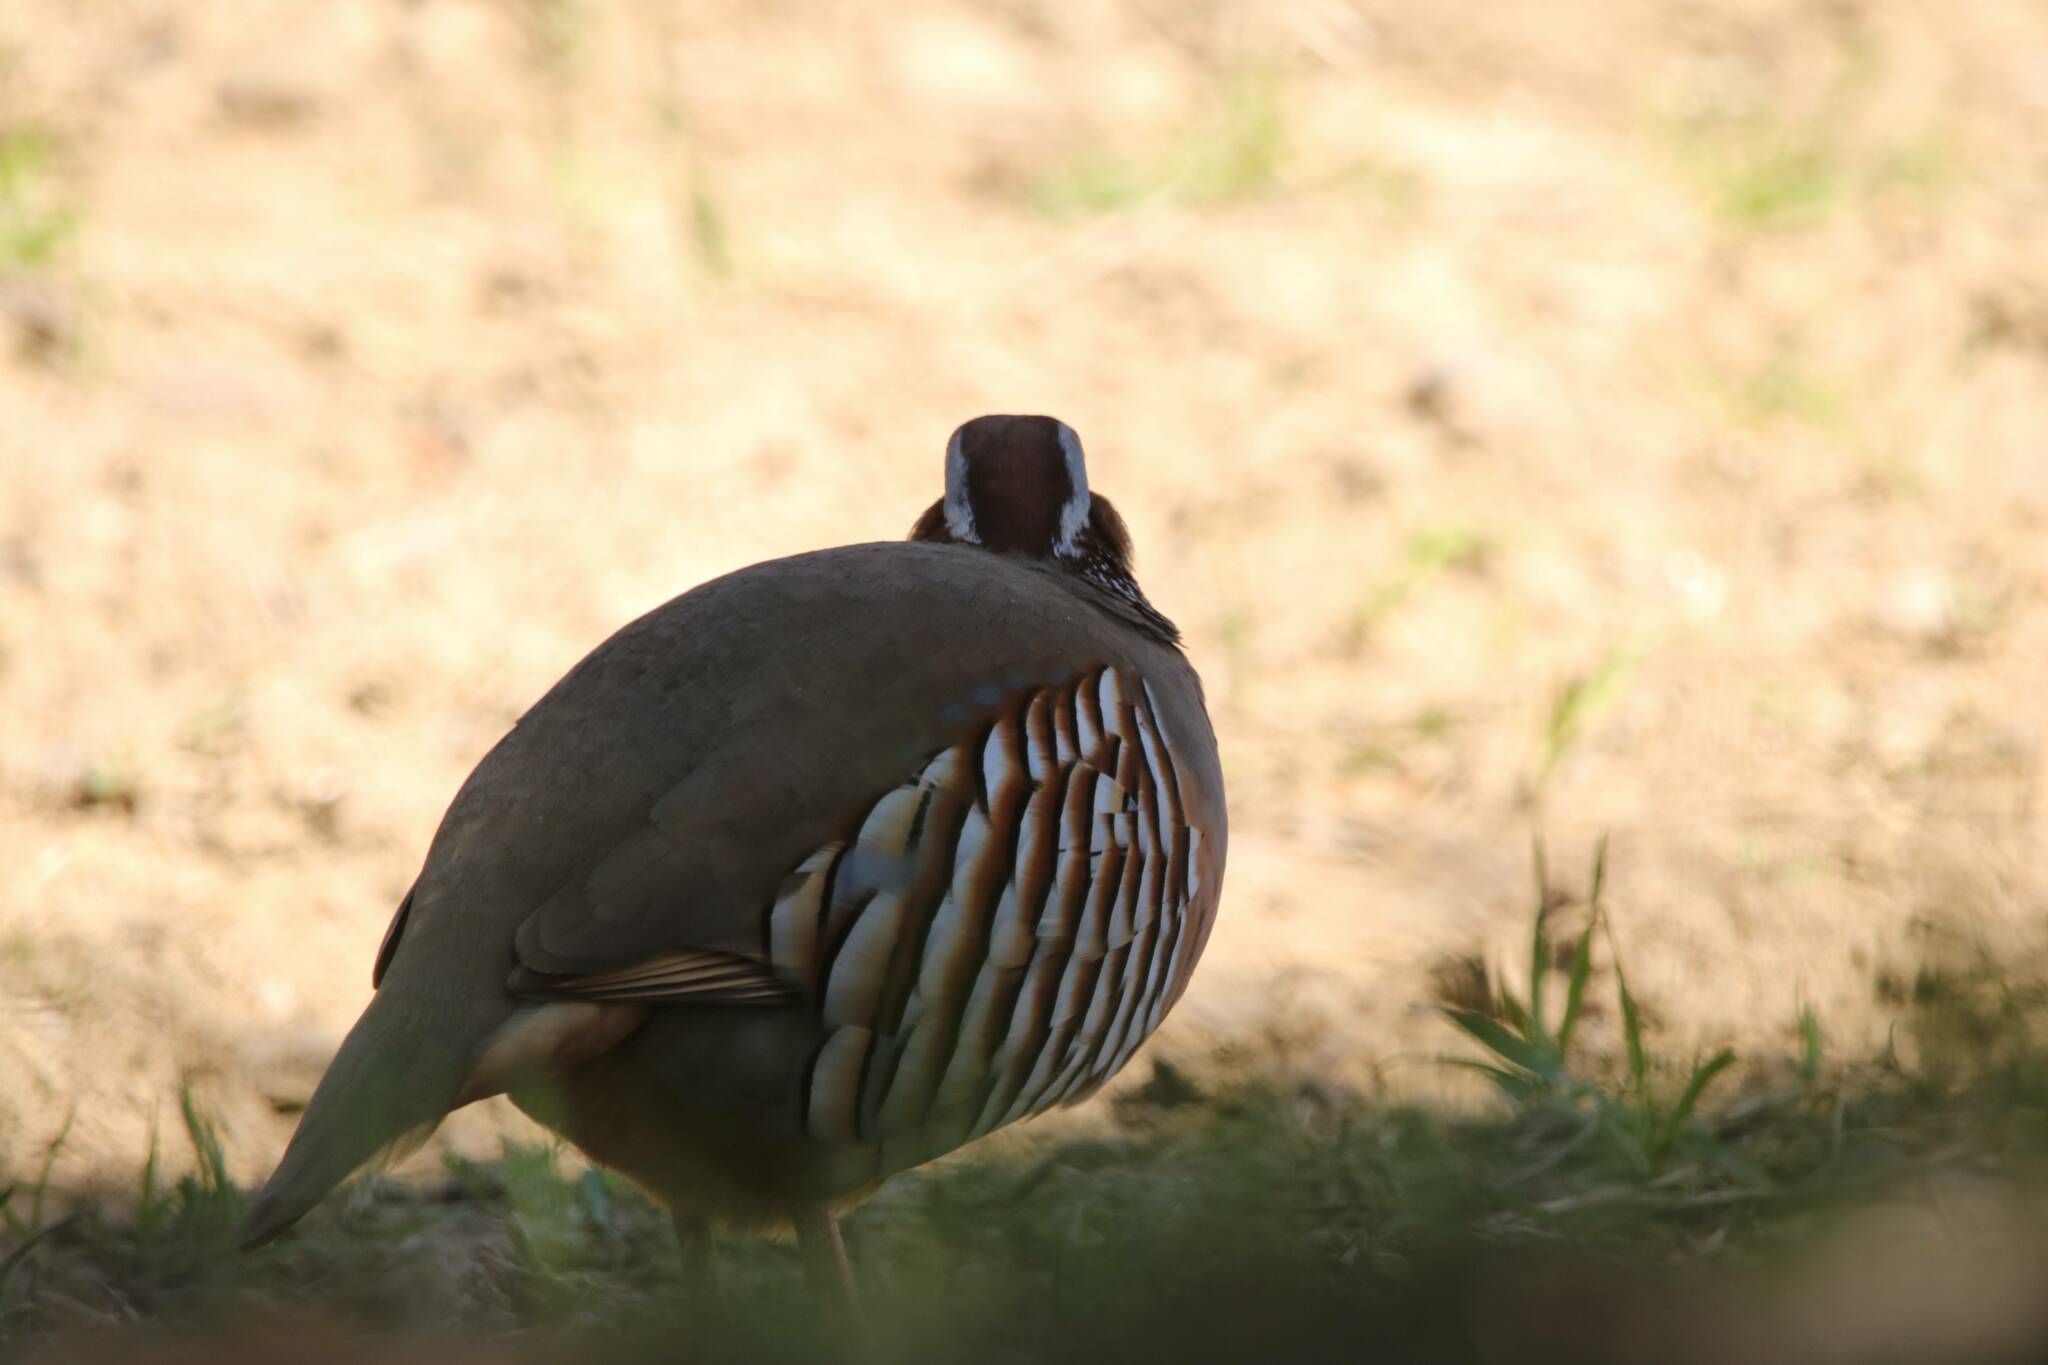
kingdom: Animalia
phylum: Chordata
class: Aves
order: Galliformes
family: Phasianidae
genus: Alectoris
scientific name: Alectoris barbara
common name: Barbary partridge
